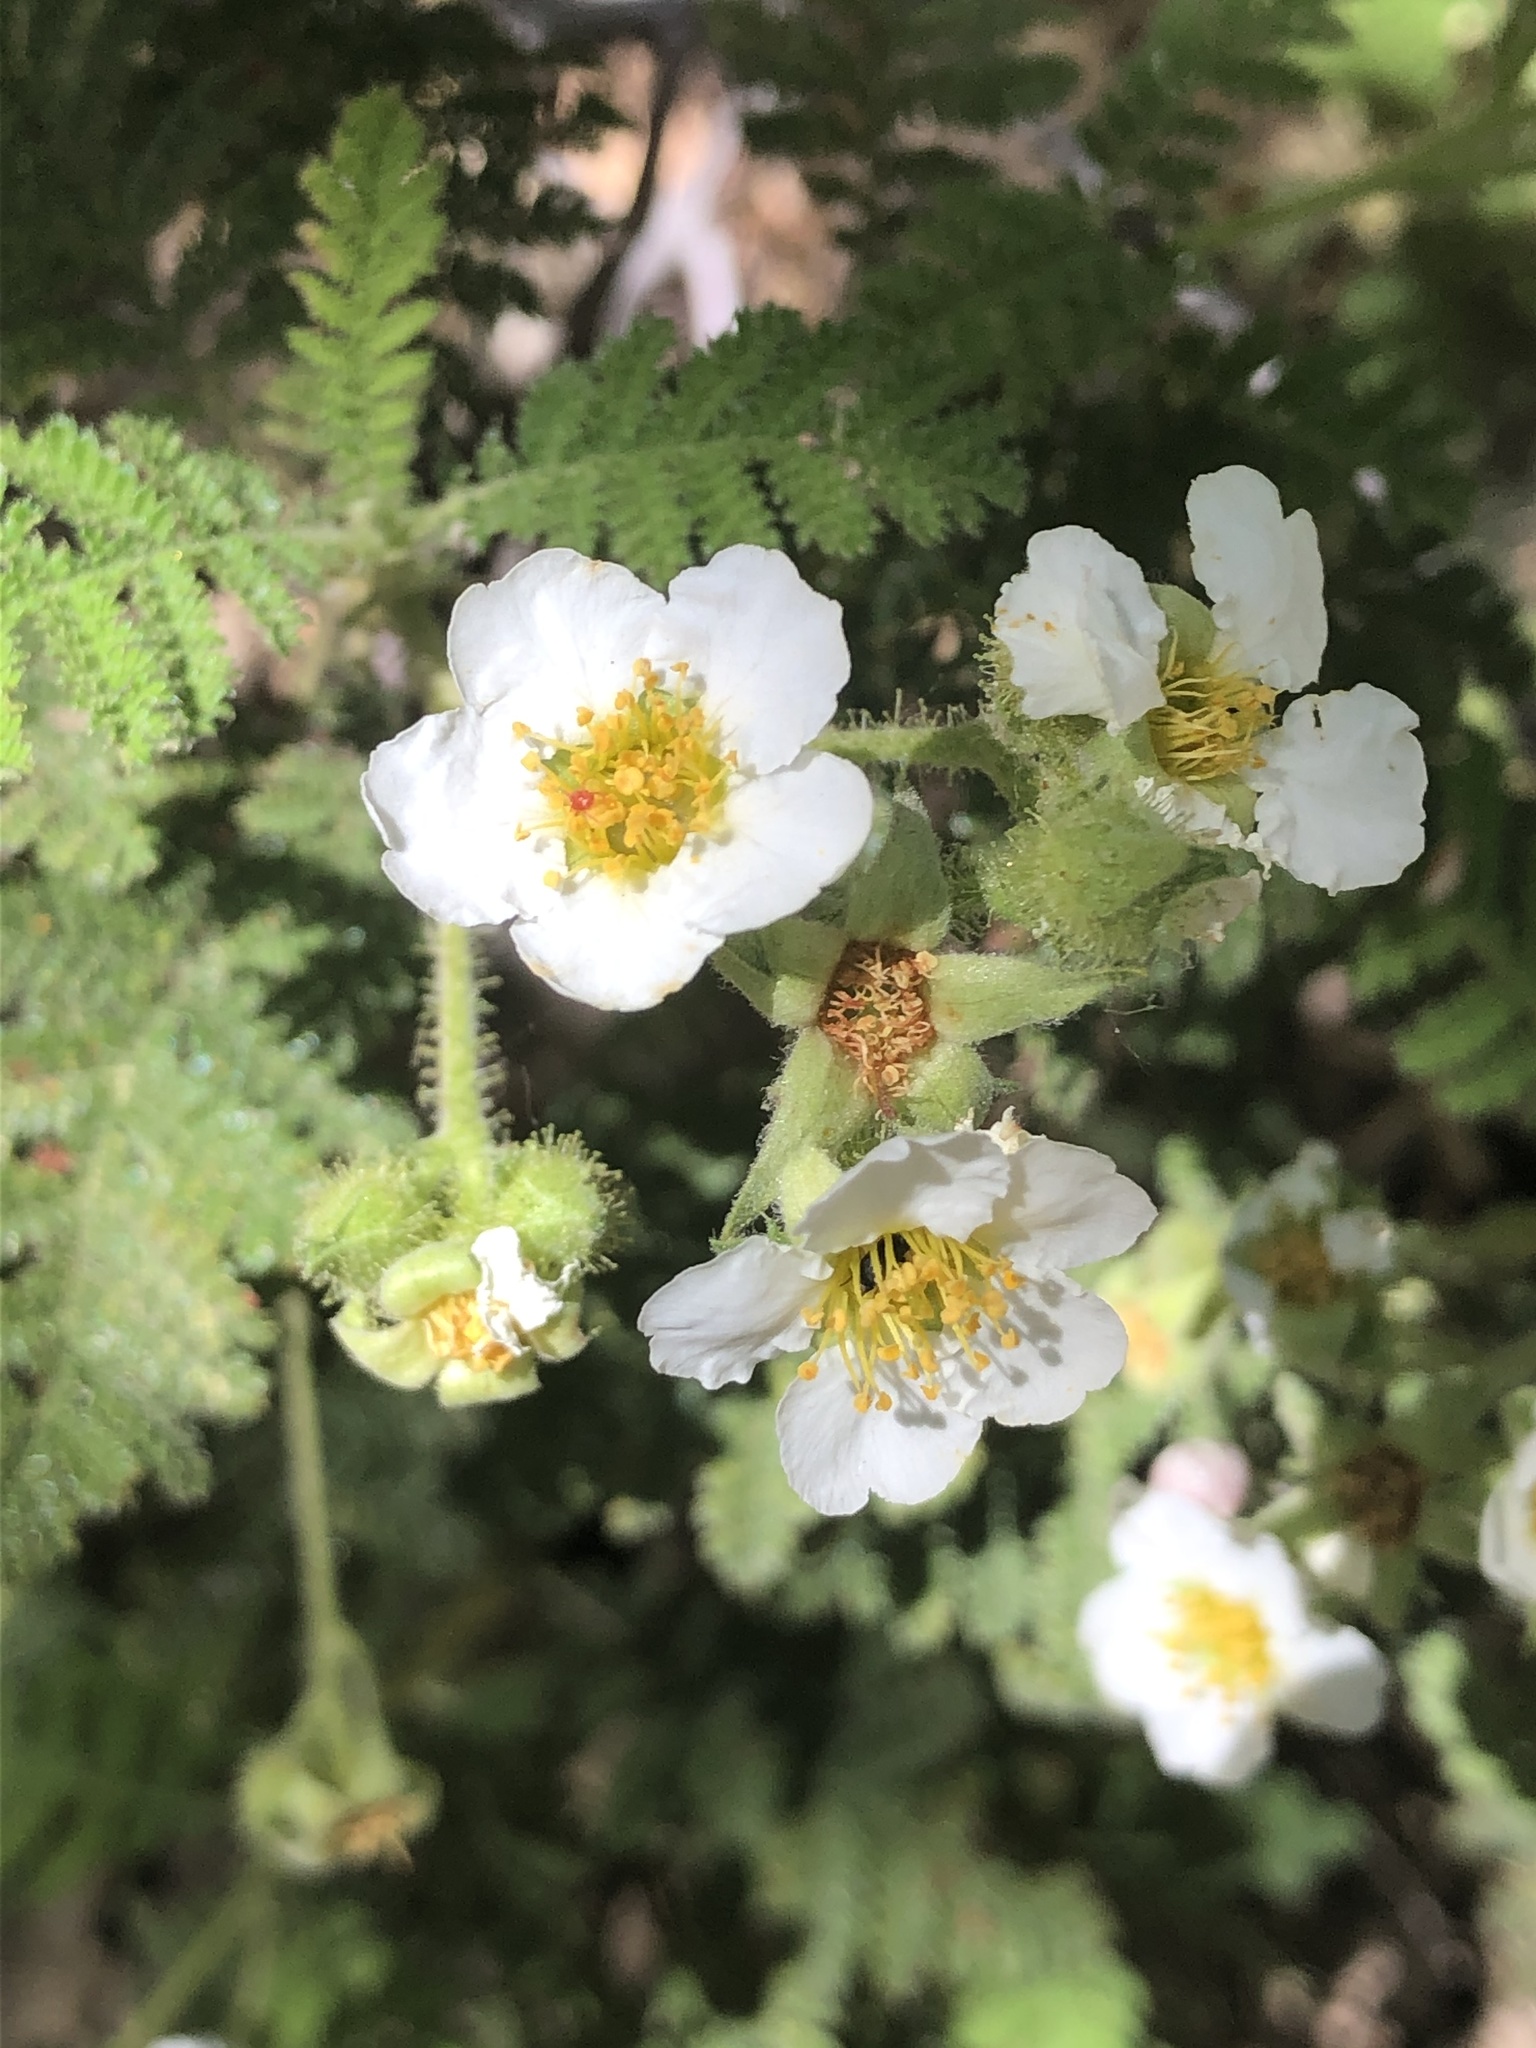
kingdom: Plantae
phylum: Tracheophyta
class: Magnoliopsida
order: Rosales
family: Rosaceae
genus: Chamaebatia
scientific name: Chamaebatia foliolosa
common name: Mountain misery
